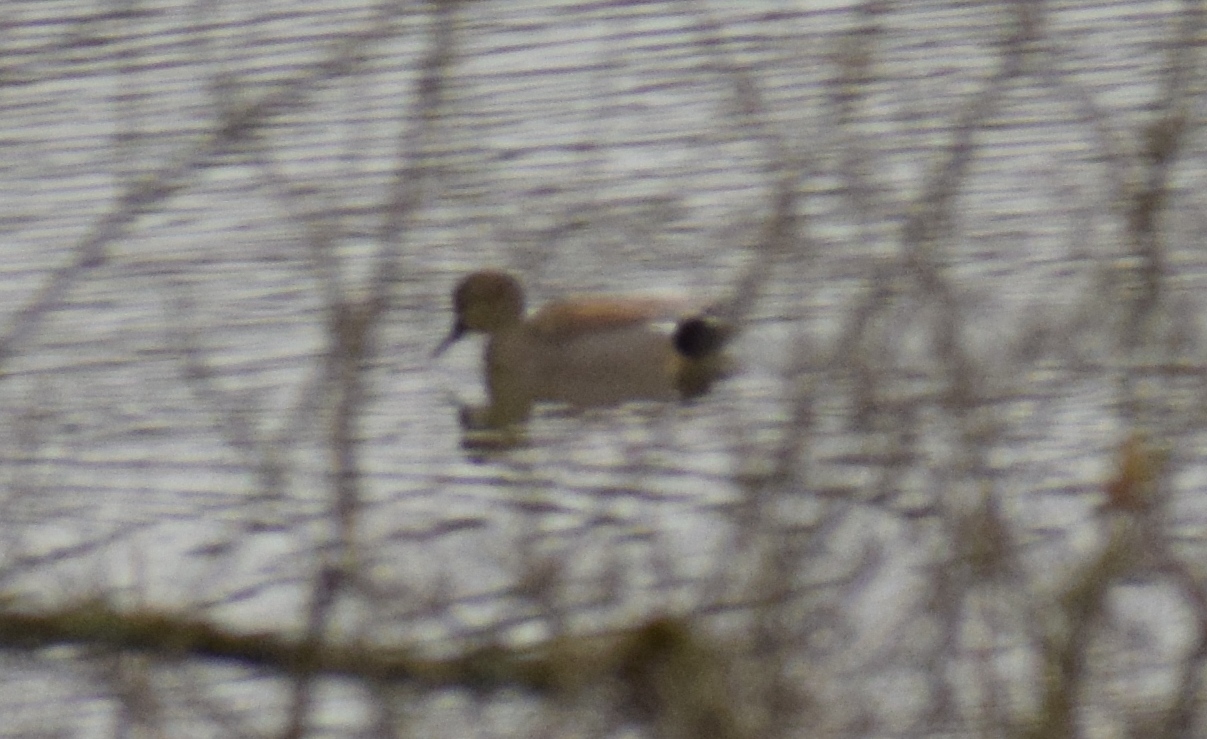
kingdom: Animalia
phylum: Chordata
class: Aves
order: Anseriformes
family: Anatidae
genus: Mareca
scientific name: Mareca strepera
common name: Gadwall
